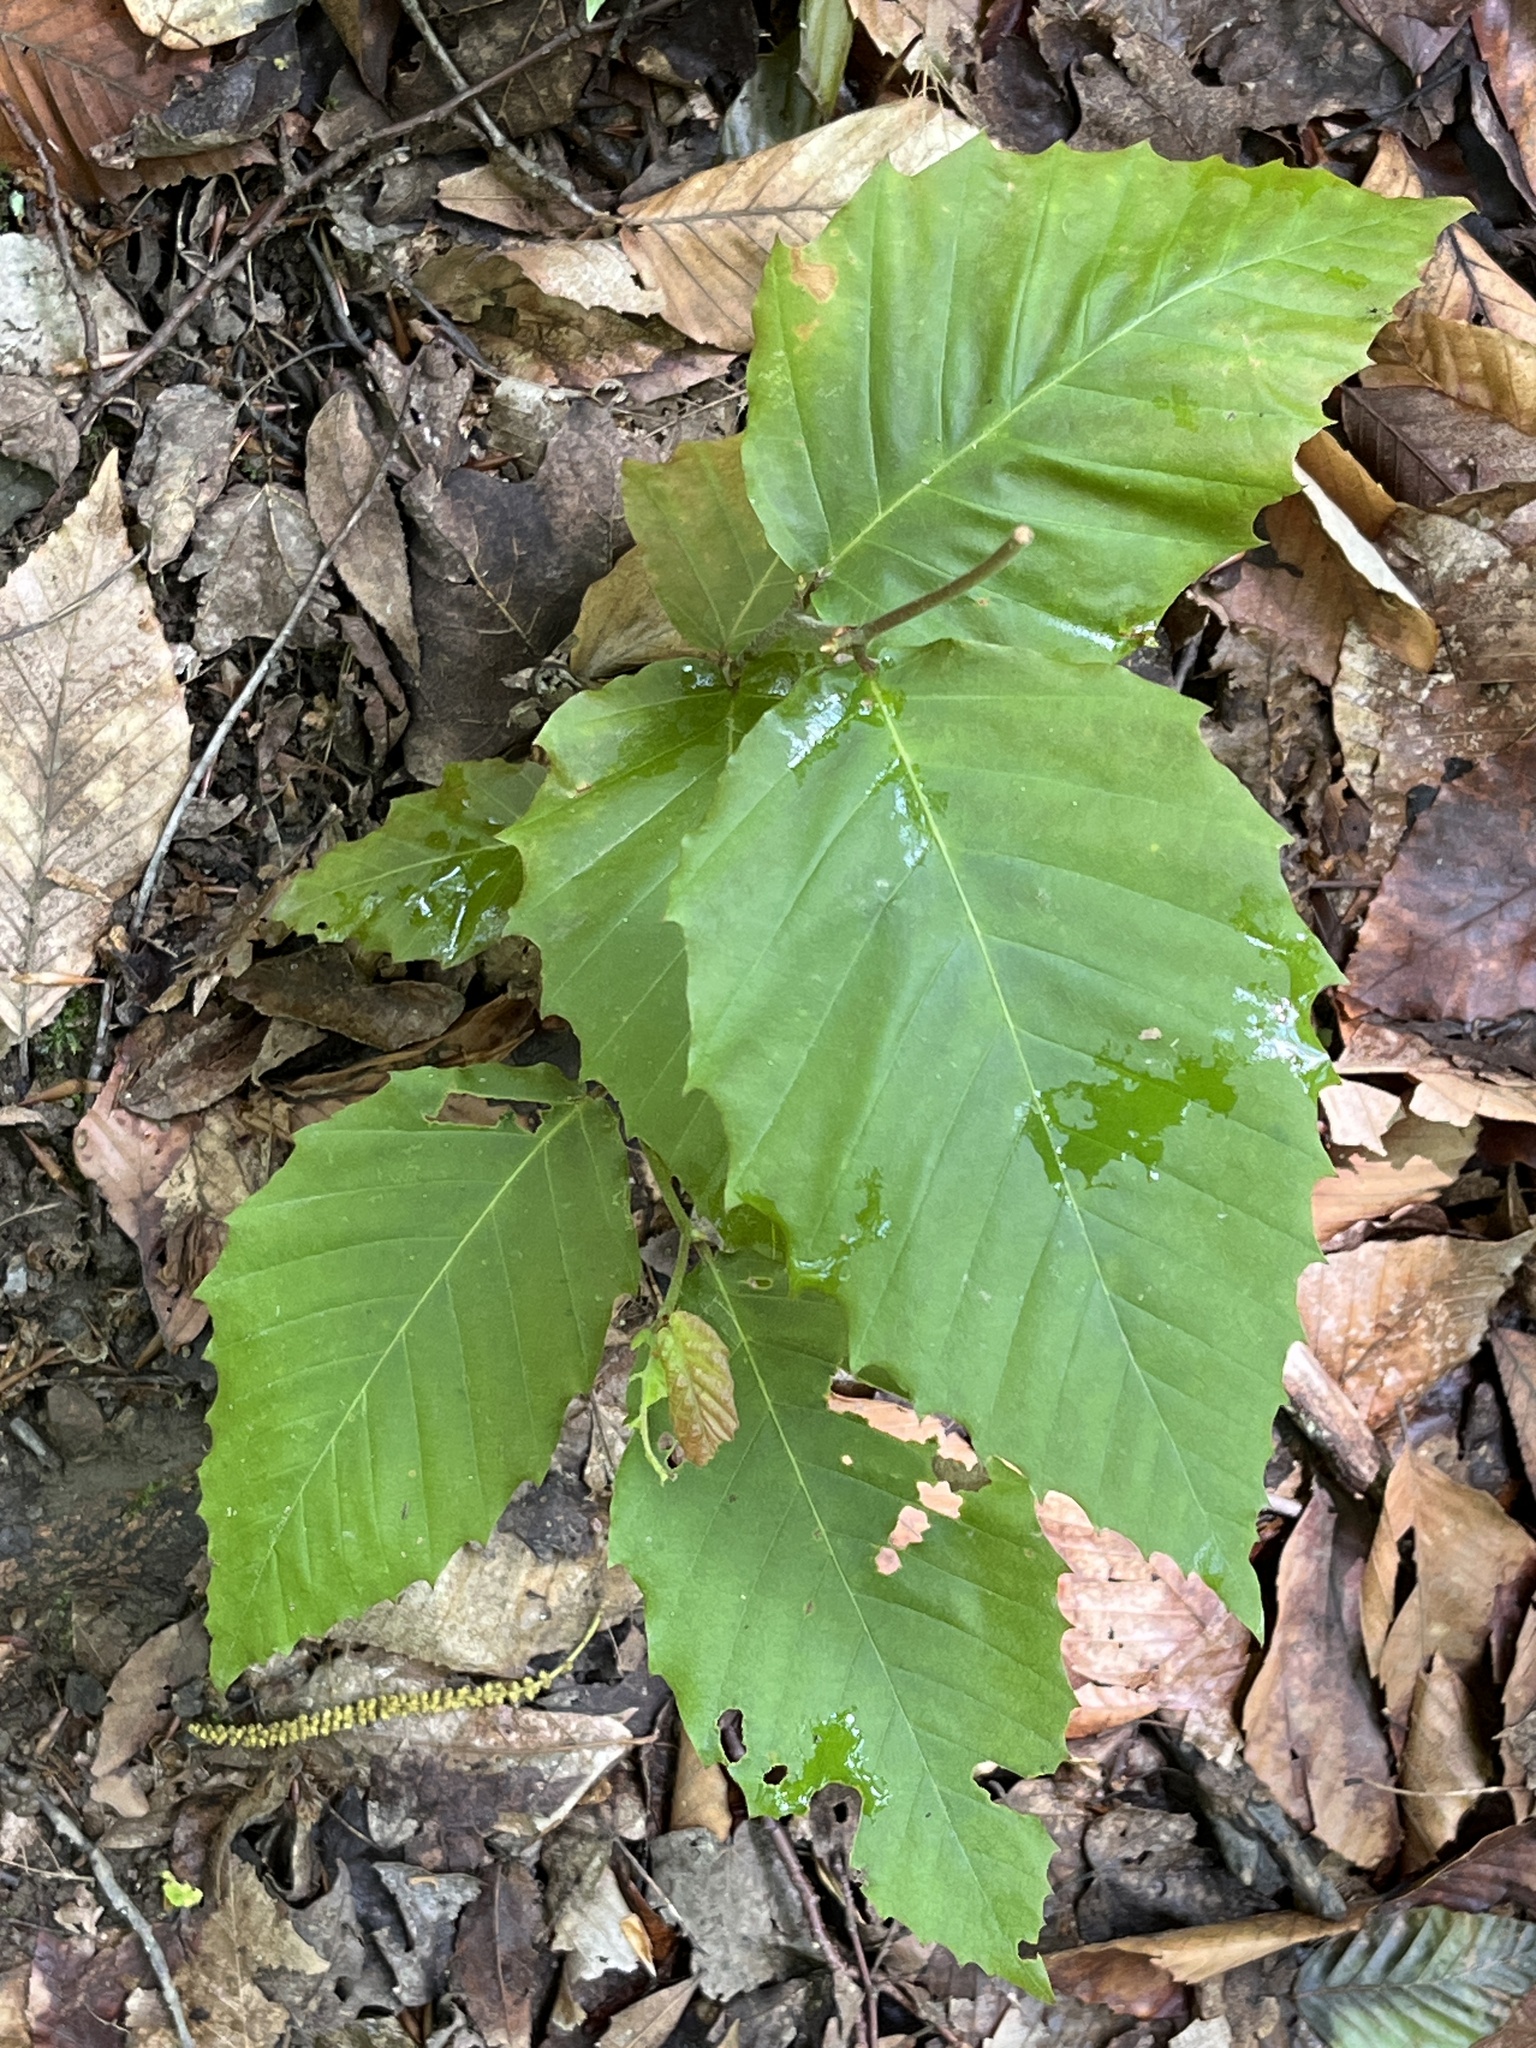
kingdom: Plantae
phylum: Tracheophyta
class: Magnoliopsida
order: Fagales
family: Fagaceae
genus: Fagus
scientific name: Fagus grandifolia
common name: American beech
